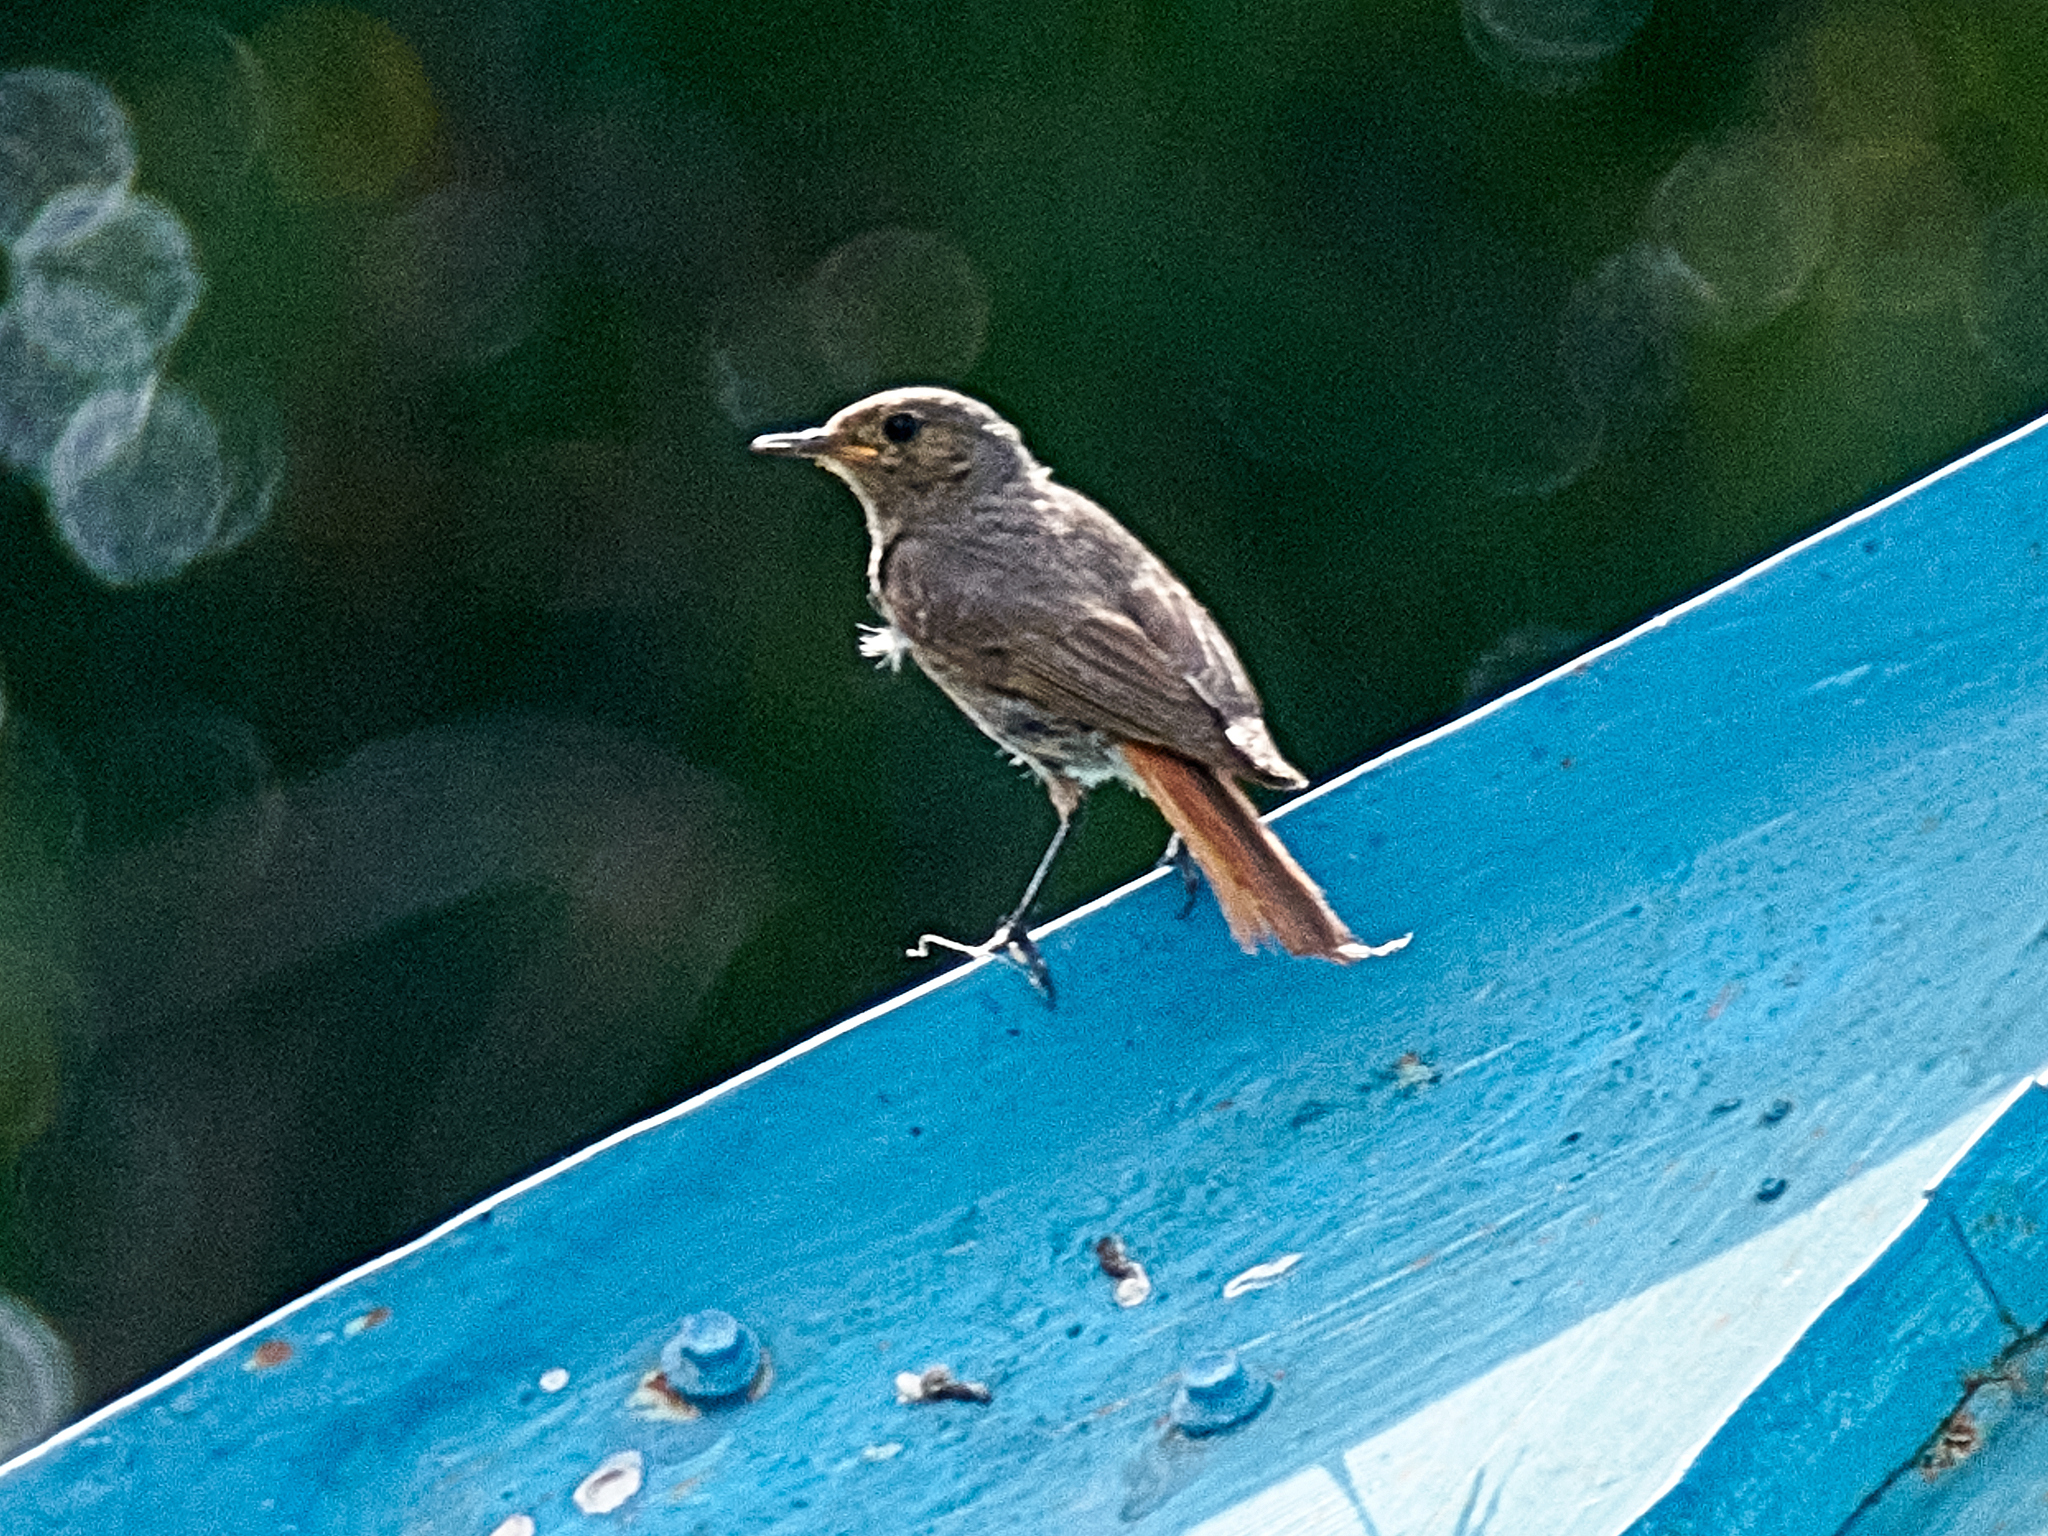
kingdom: Animalia
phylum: Chordata
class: Aves
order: Passeriformes
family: Muscicapidae
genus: Phoenicurus
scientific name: Phoenicurus ochruros
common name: Black redstart
